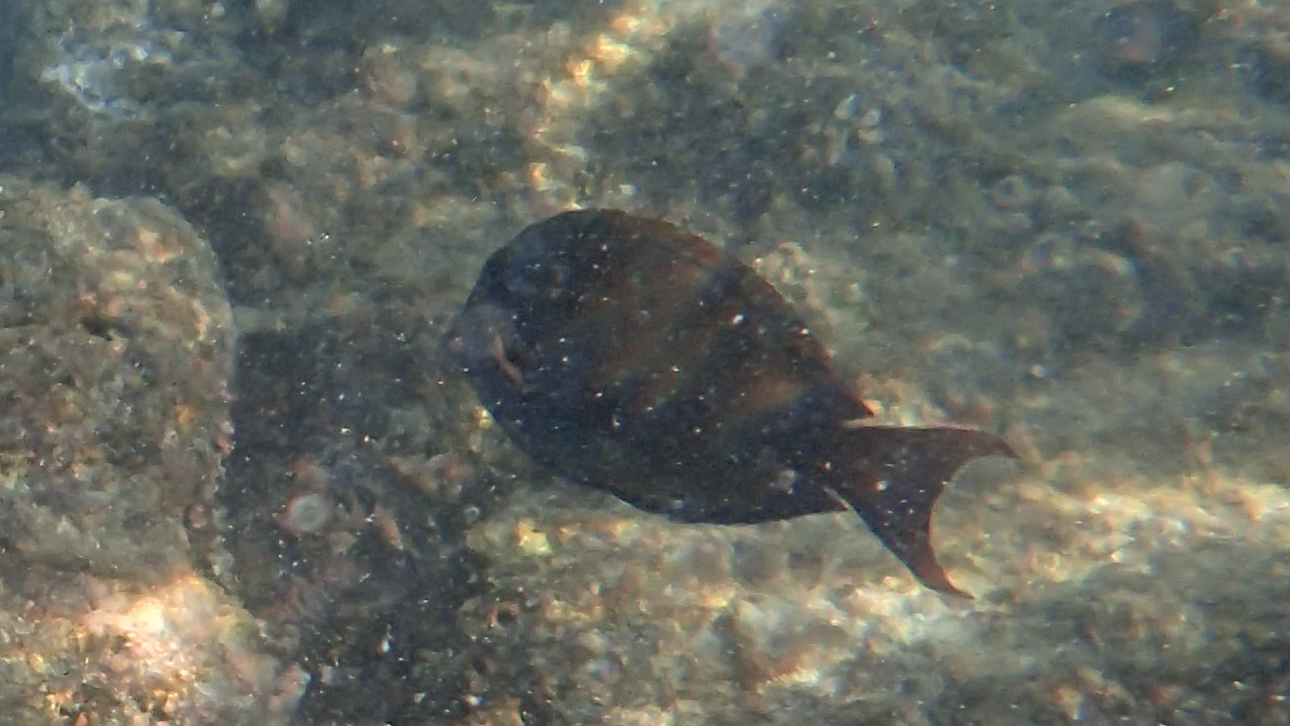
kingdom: Animalia
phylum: Chordata
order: Perciformes
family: Acanthuridae
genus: Acanthurus
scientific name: Acanthurus nigrofuscus
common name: Blackspot surgeonfish
